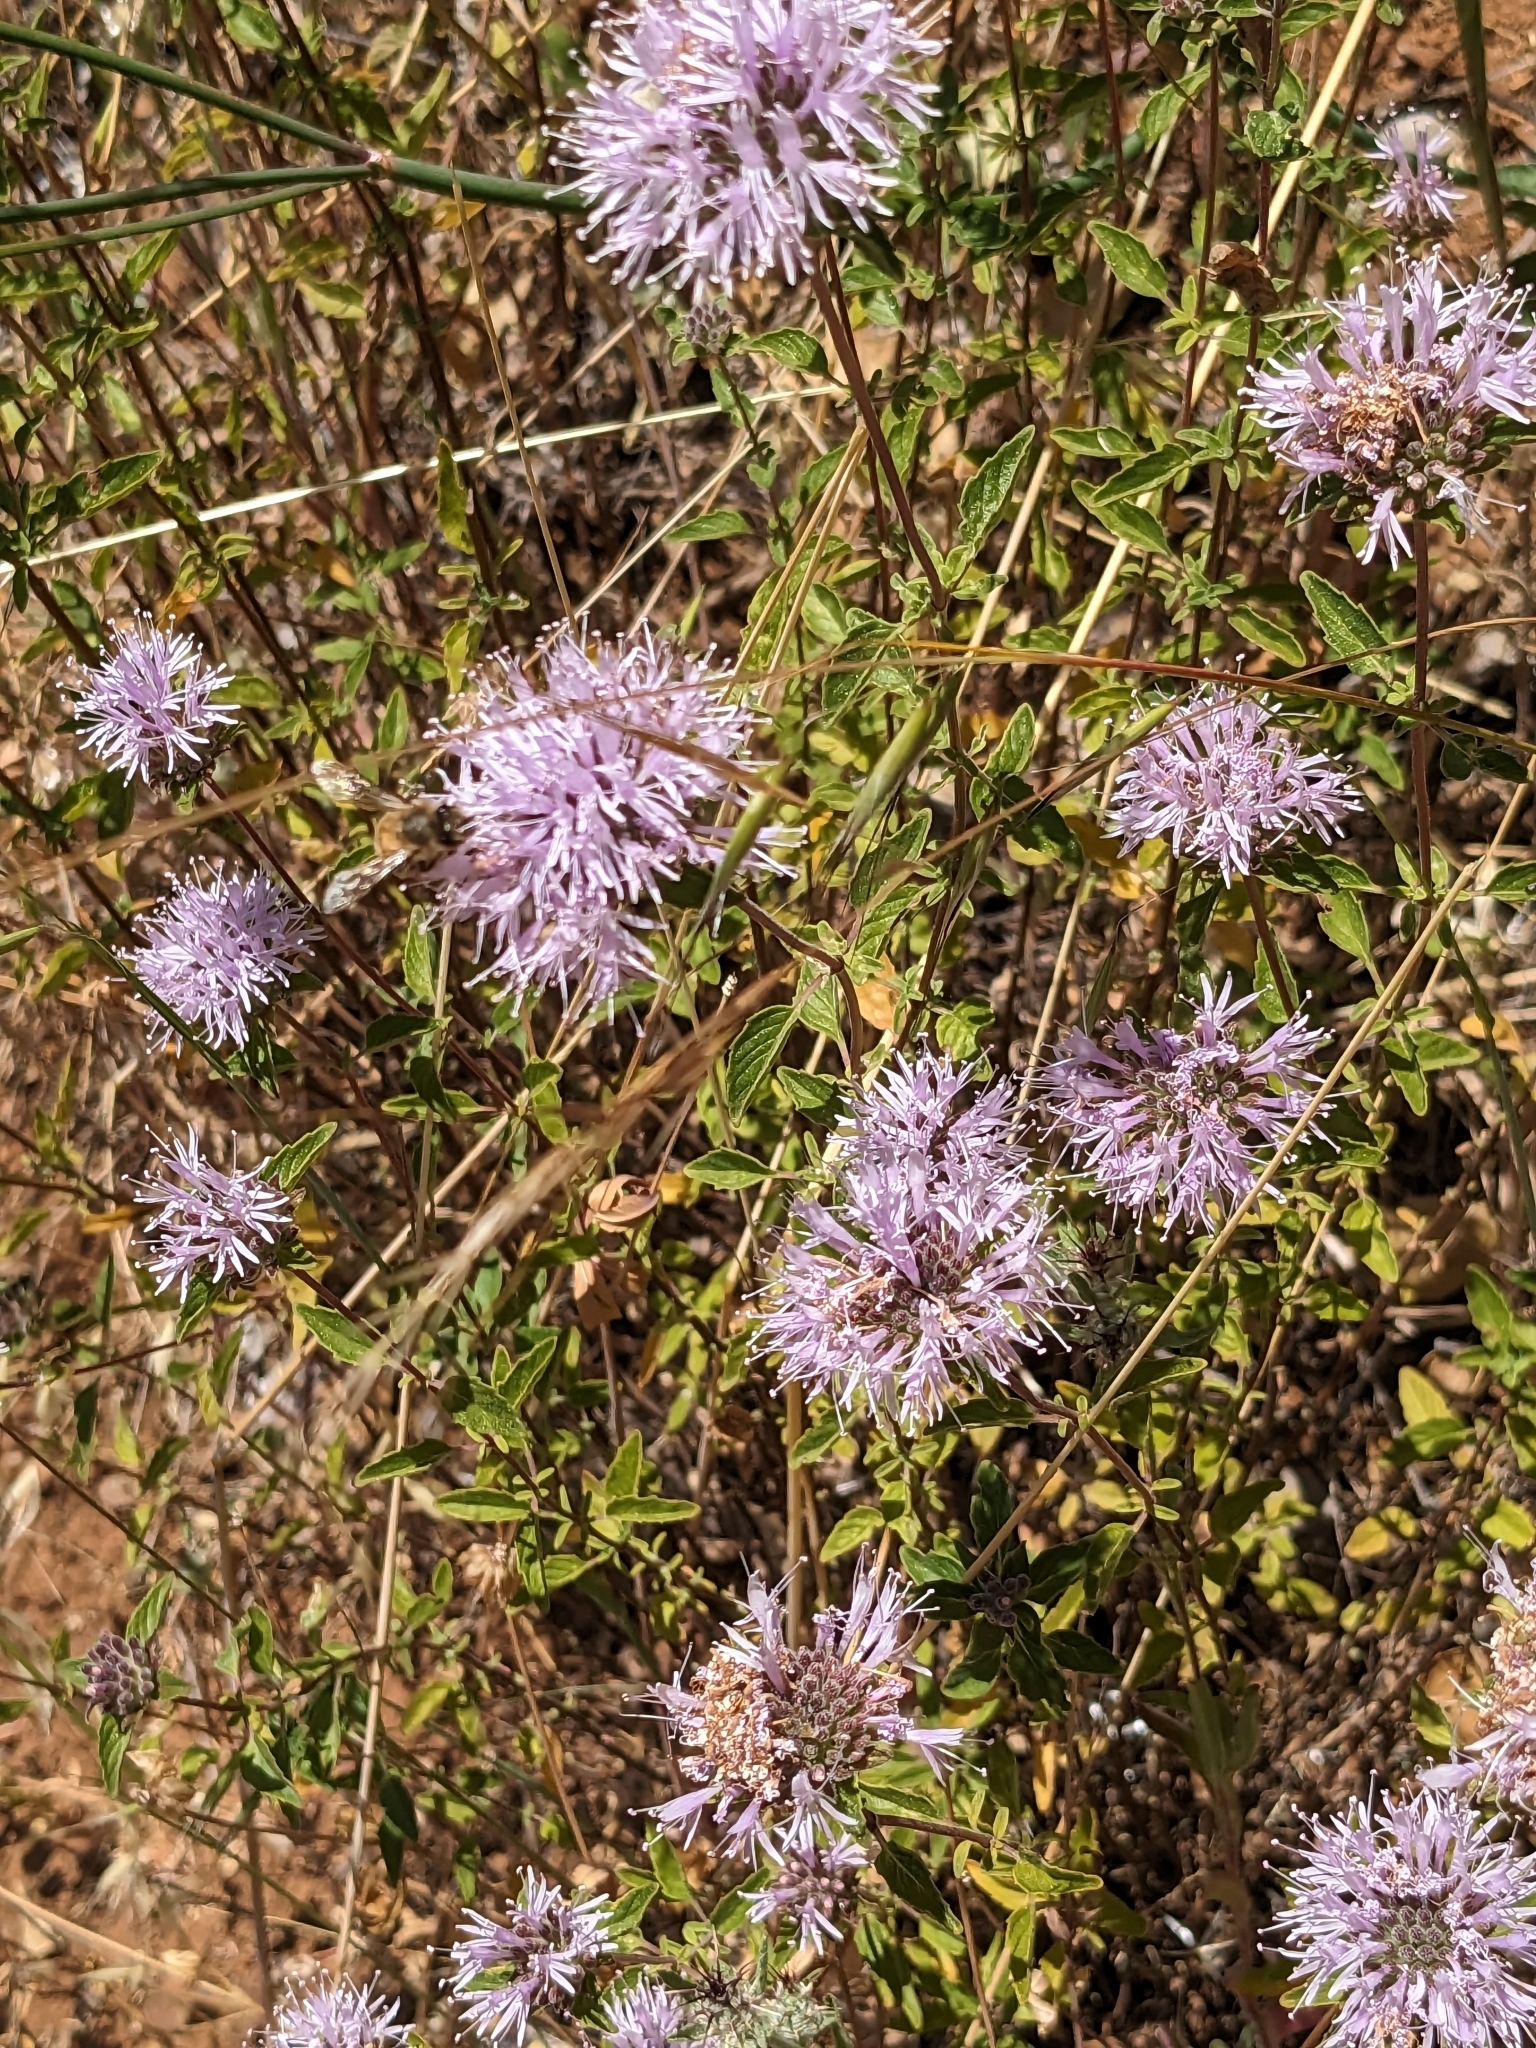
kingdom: Plantae
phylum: Tracheophyta
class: Magnoliopsida
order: Lamiales
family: Lamiaceae
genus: Monardella
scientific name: Monardella odoratissima
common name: Pacific monardella
